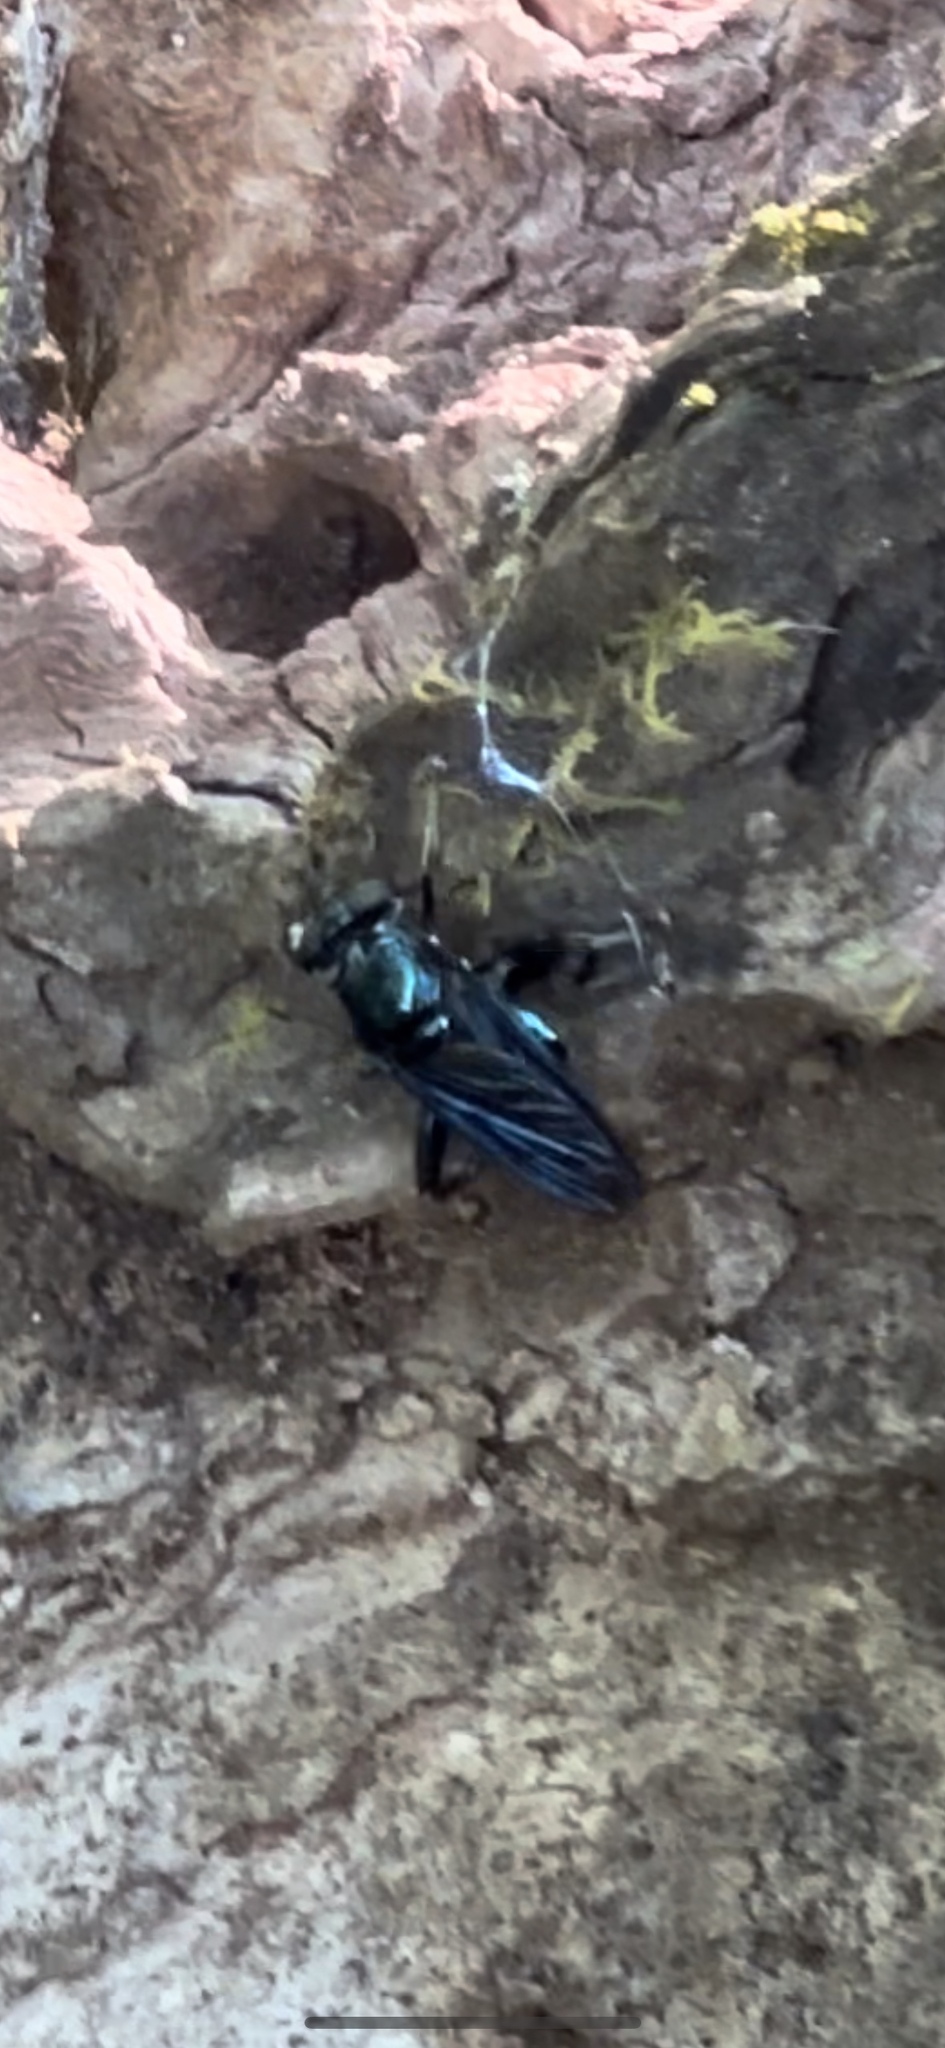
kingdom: Animalia
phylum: Arthropoda
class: Insecta
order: Diptera
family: Syrphidae
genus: Stilbosoma
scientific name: Stilbosoma cyaneum
